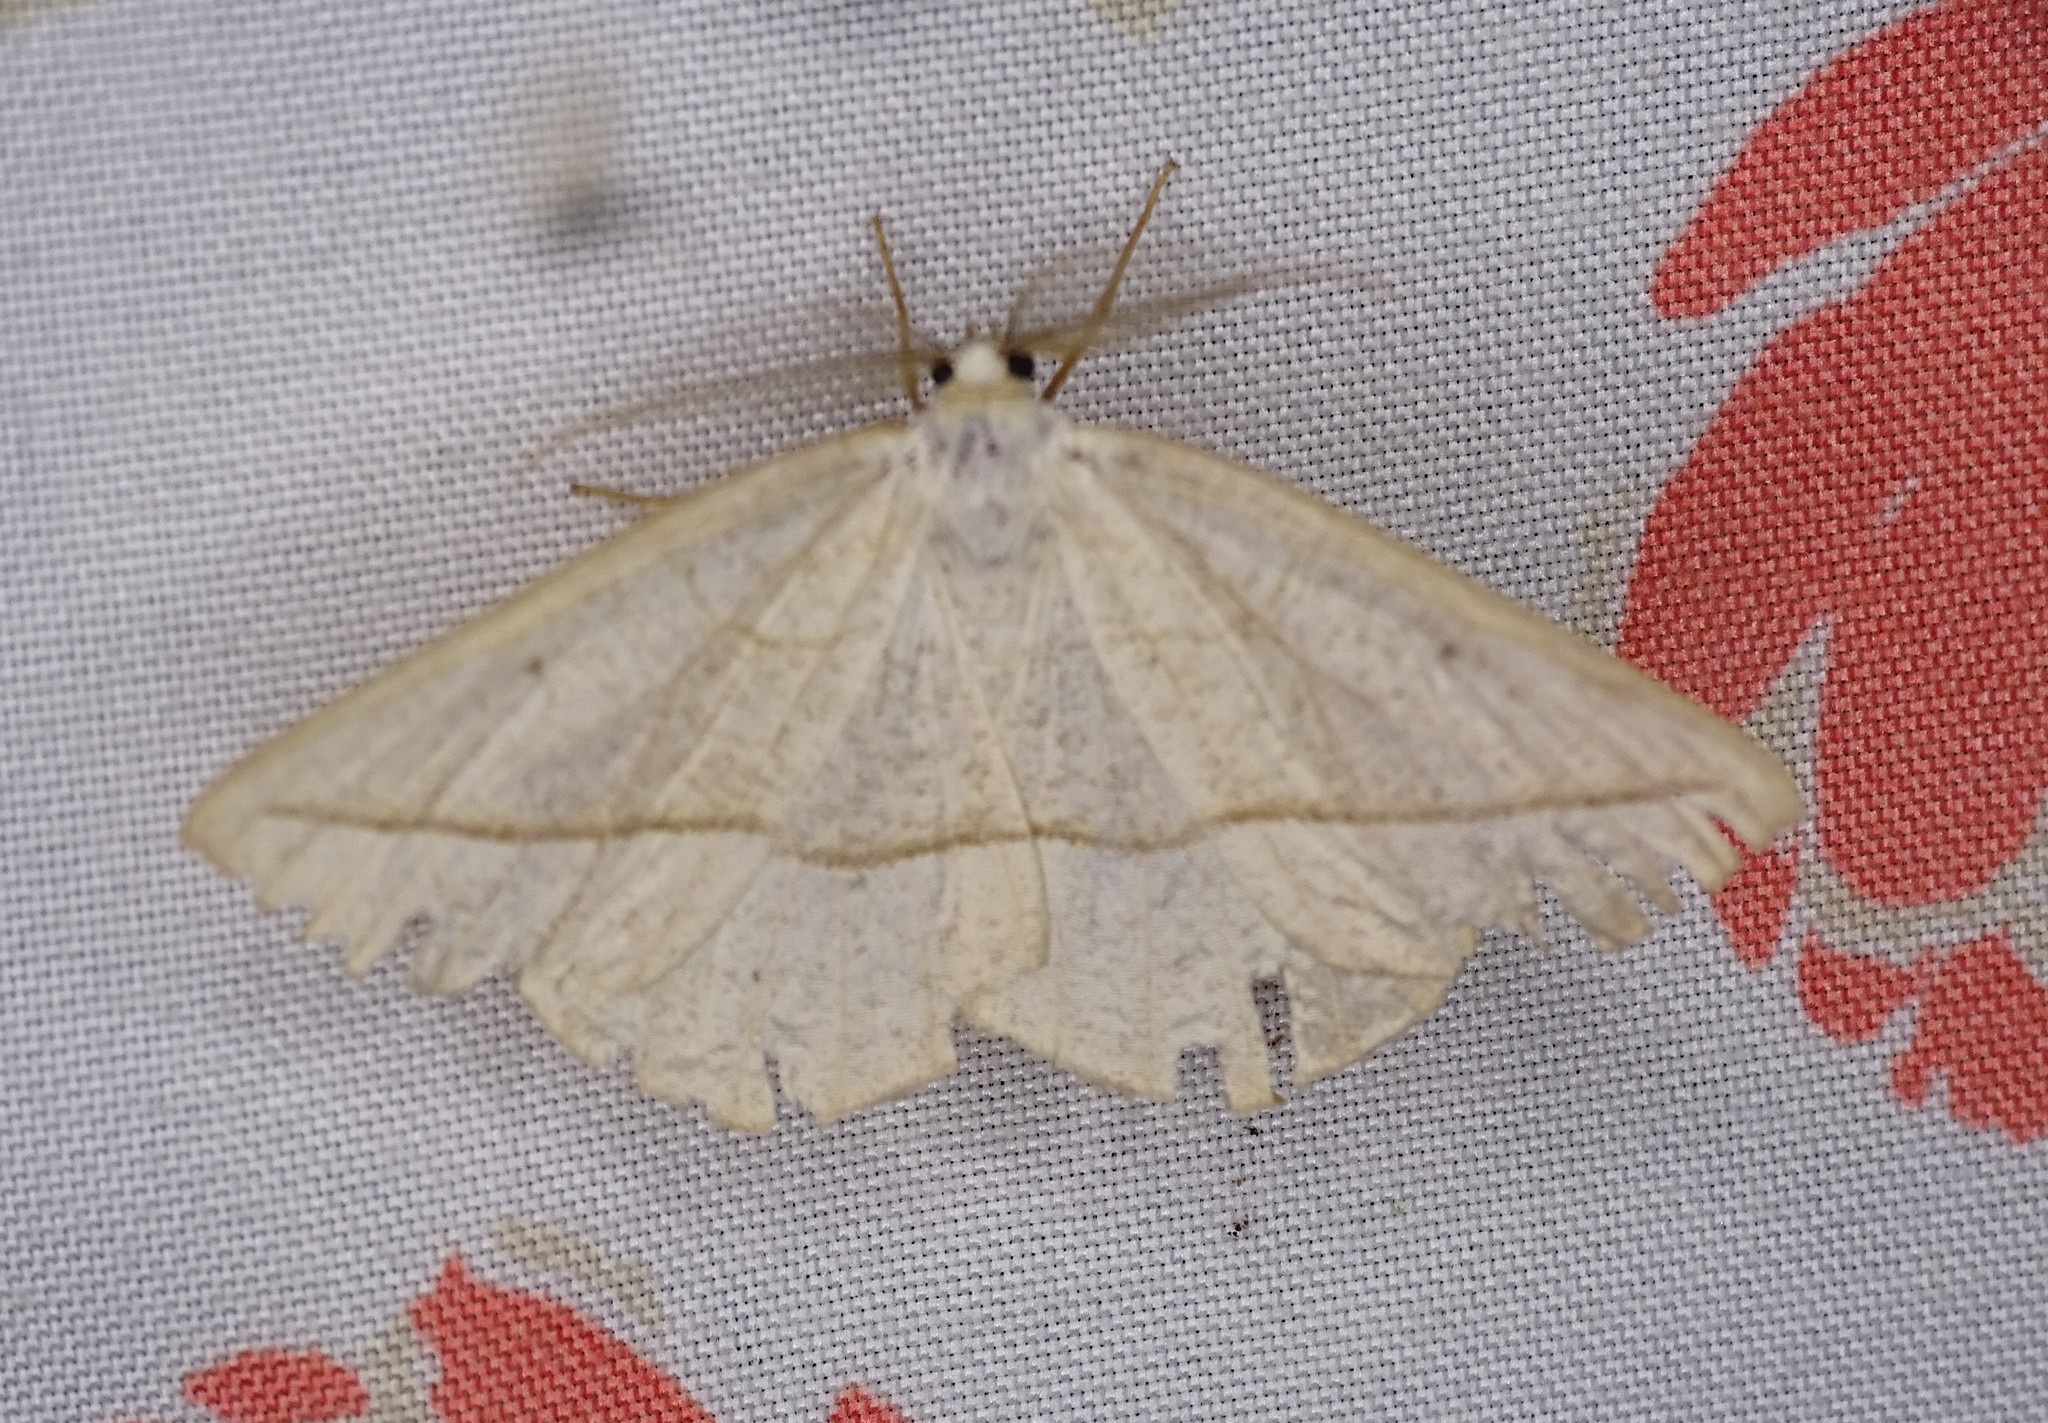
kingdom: Animalia
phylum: Arthropoda
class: Insecta
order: Lepidoptera
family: Geometridae
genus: Eusarca
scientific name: Eusarca confusaria
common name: Confused eusarca
